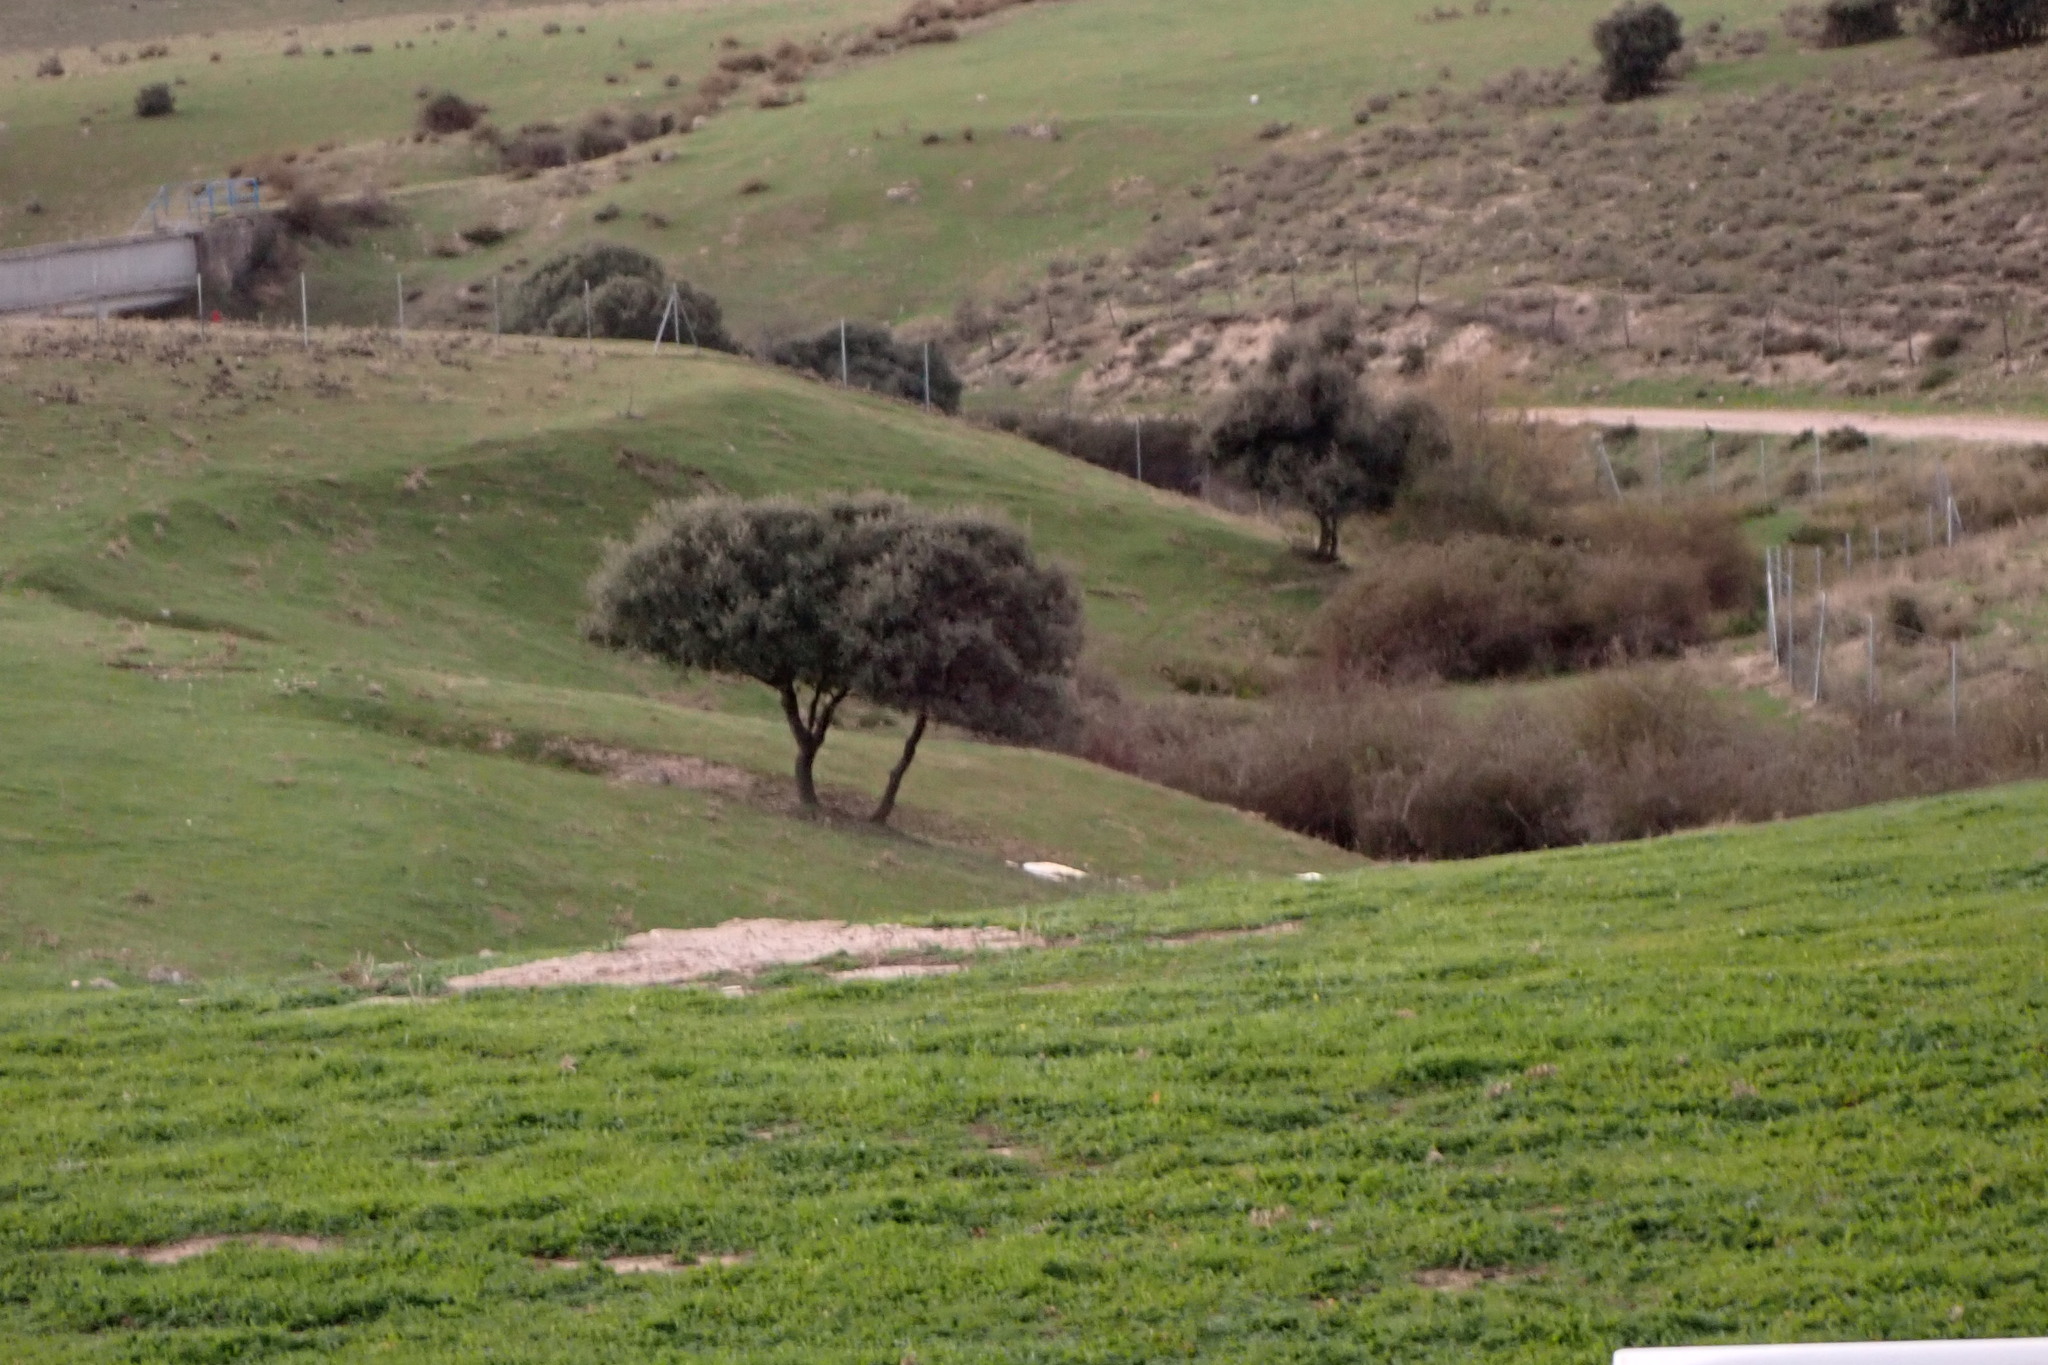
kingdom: Plantae
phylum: Tracheophyta
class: Magnoliopsida
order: Fagales
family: Fagaceae
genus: Quercus
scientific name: Quercus rotundifolia
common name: Holm oak
